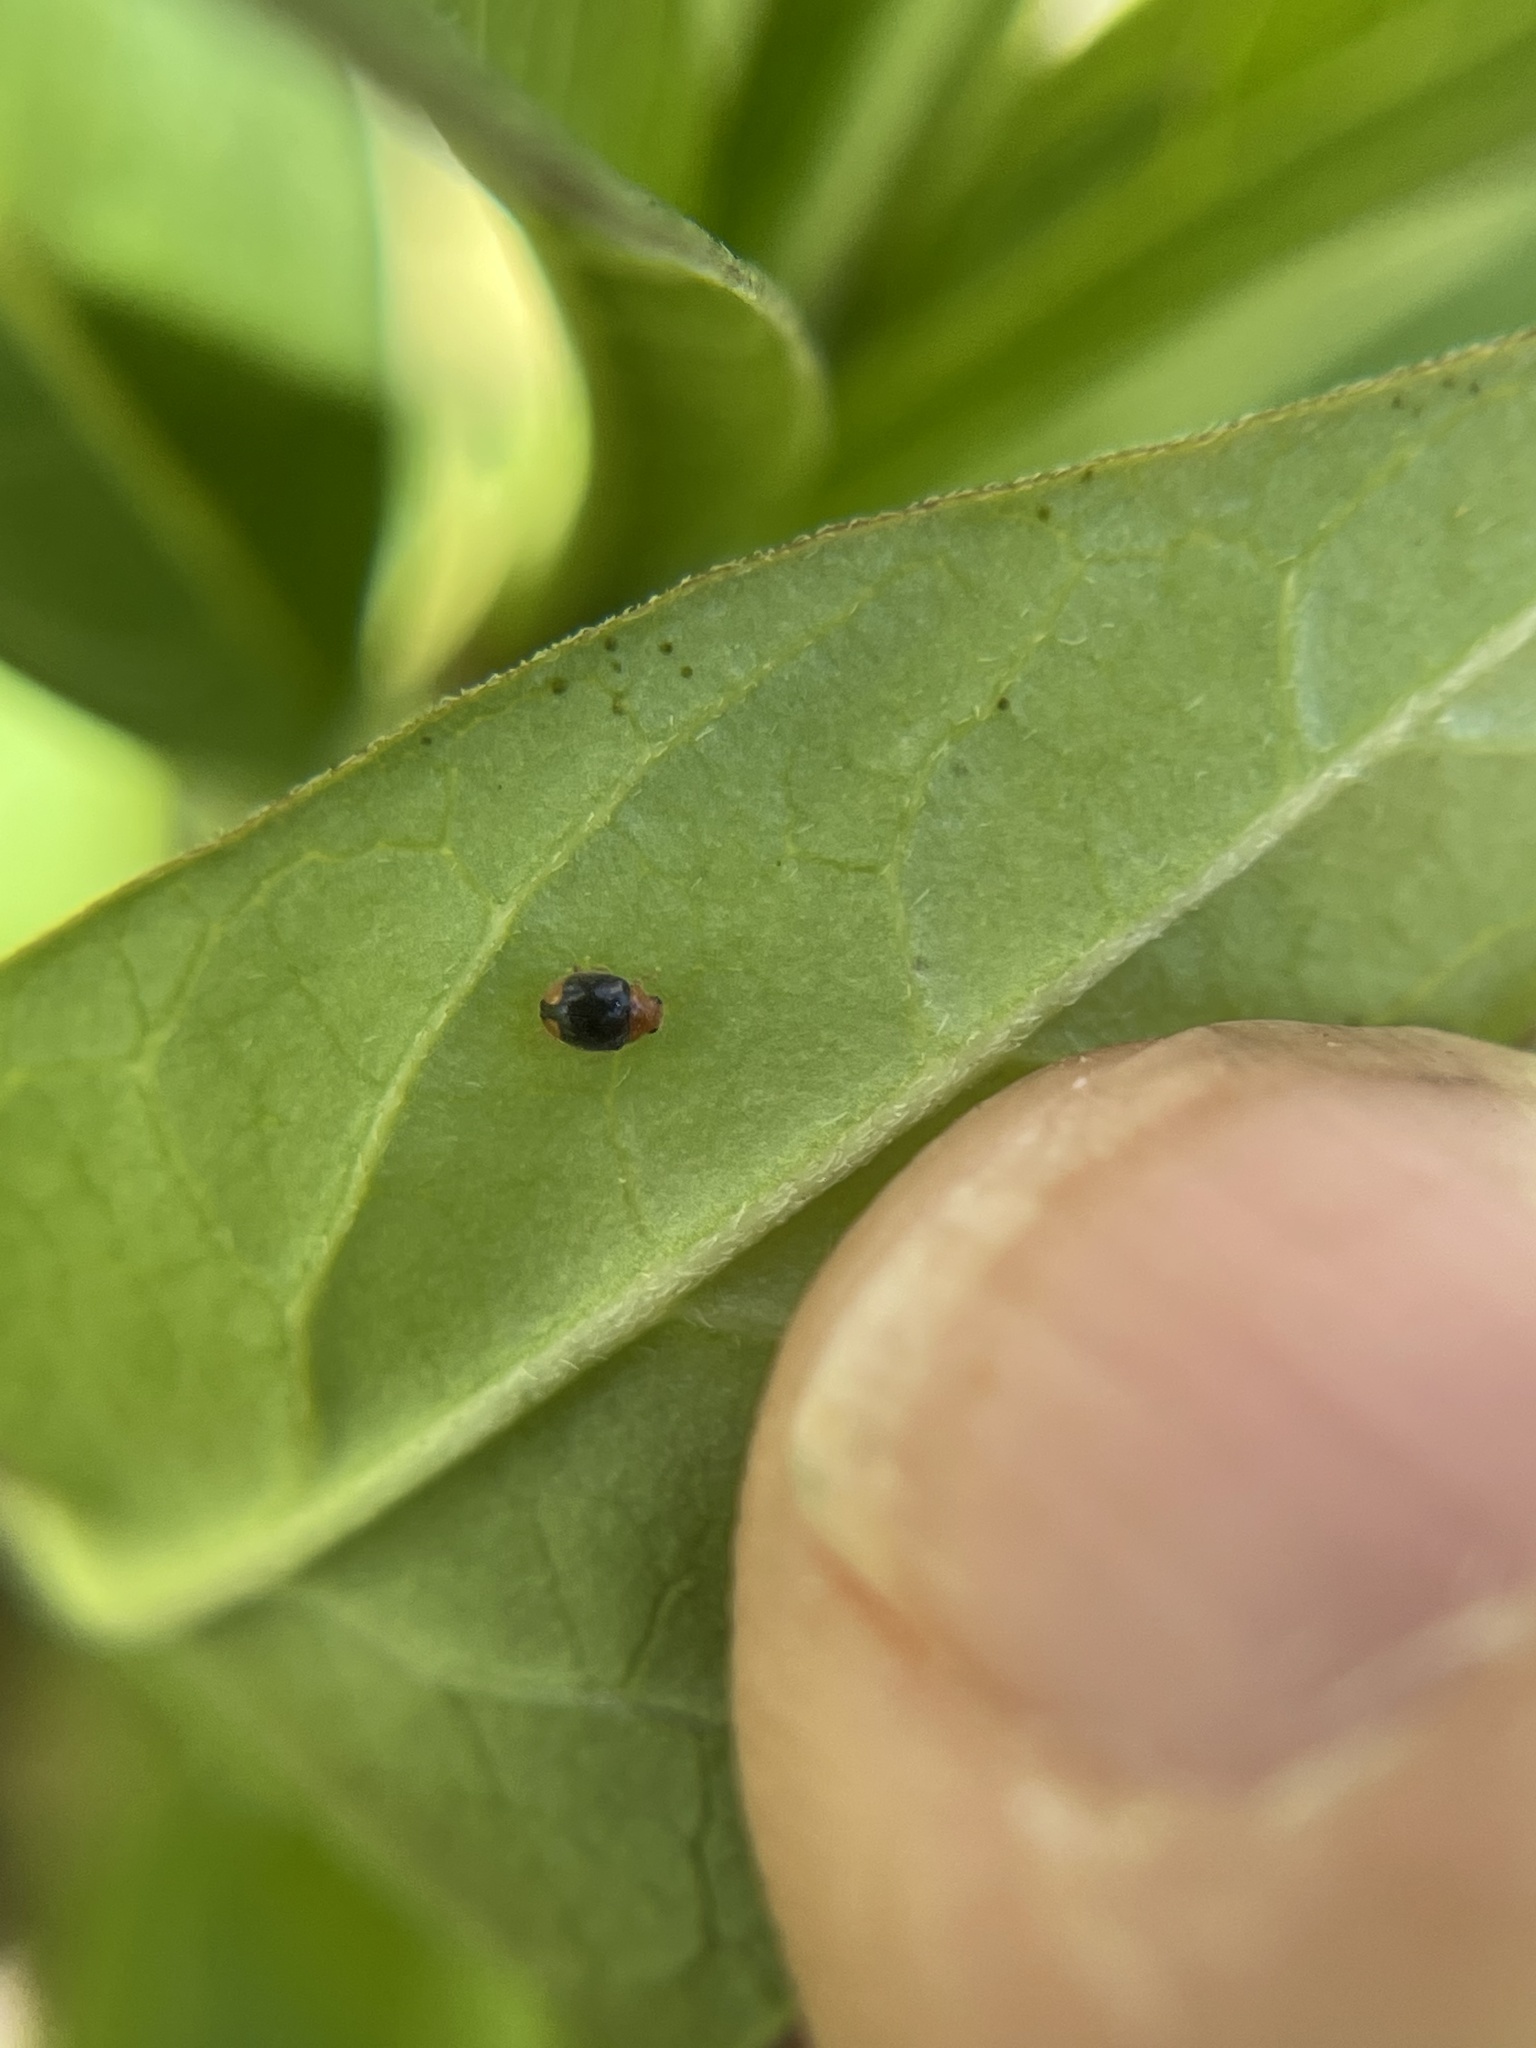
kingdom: Animalia
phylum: Arthropoda
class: Insecta
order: Coleoptera
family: Coccinellidae
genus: Diomus
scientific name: Diomus roseicollis
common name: Ladybird beetle
